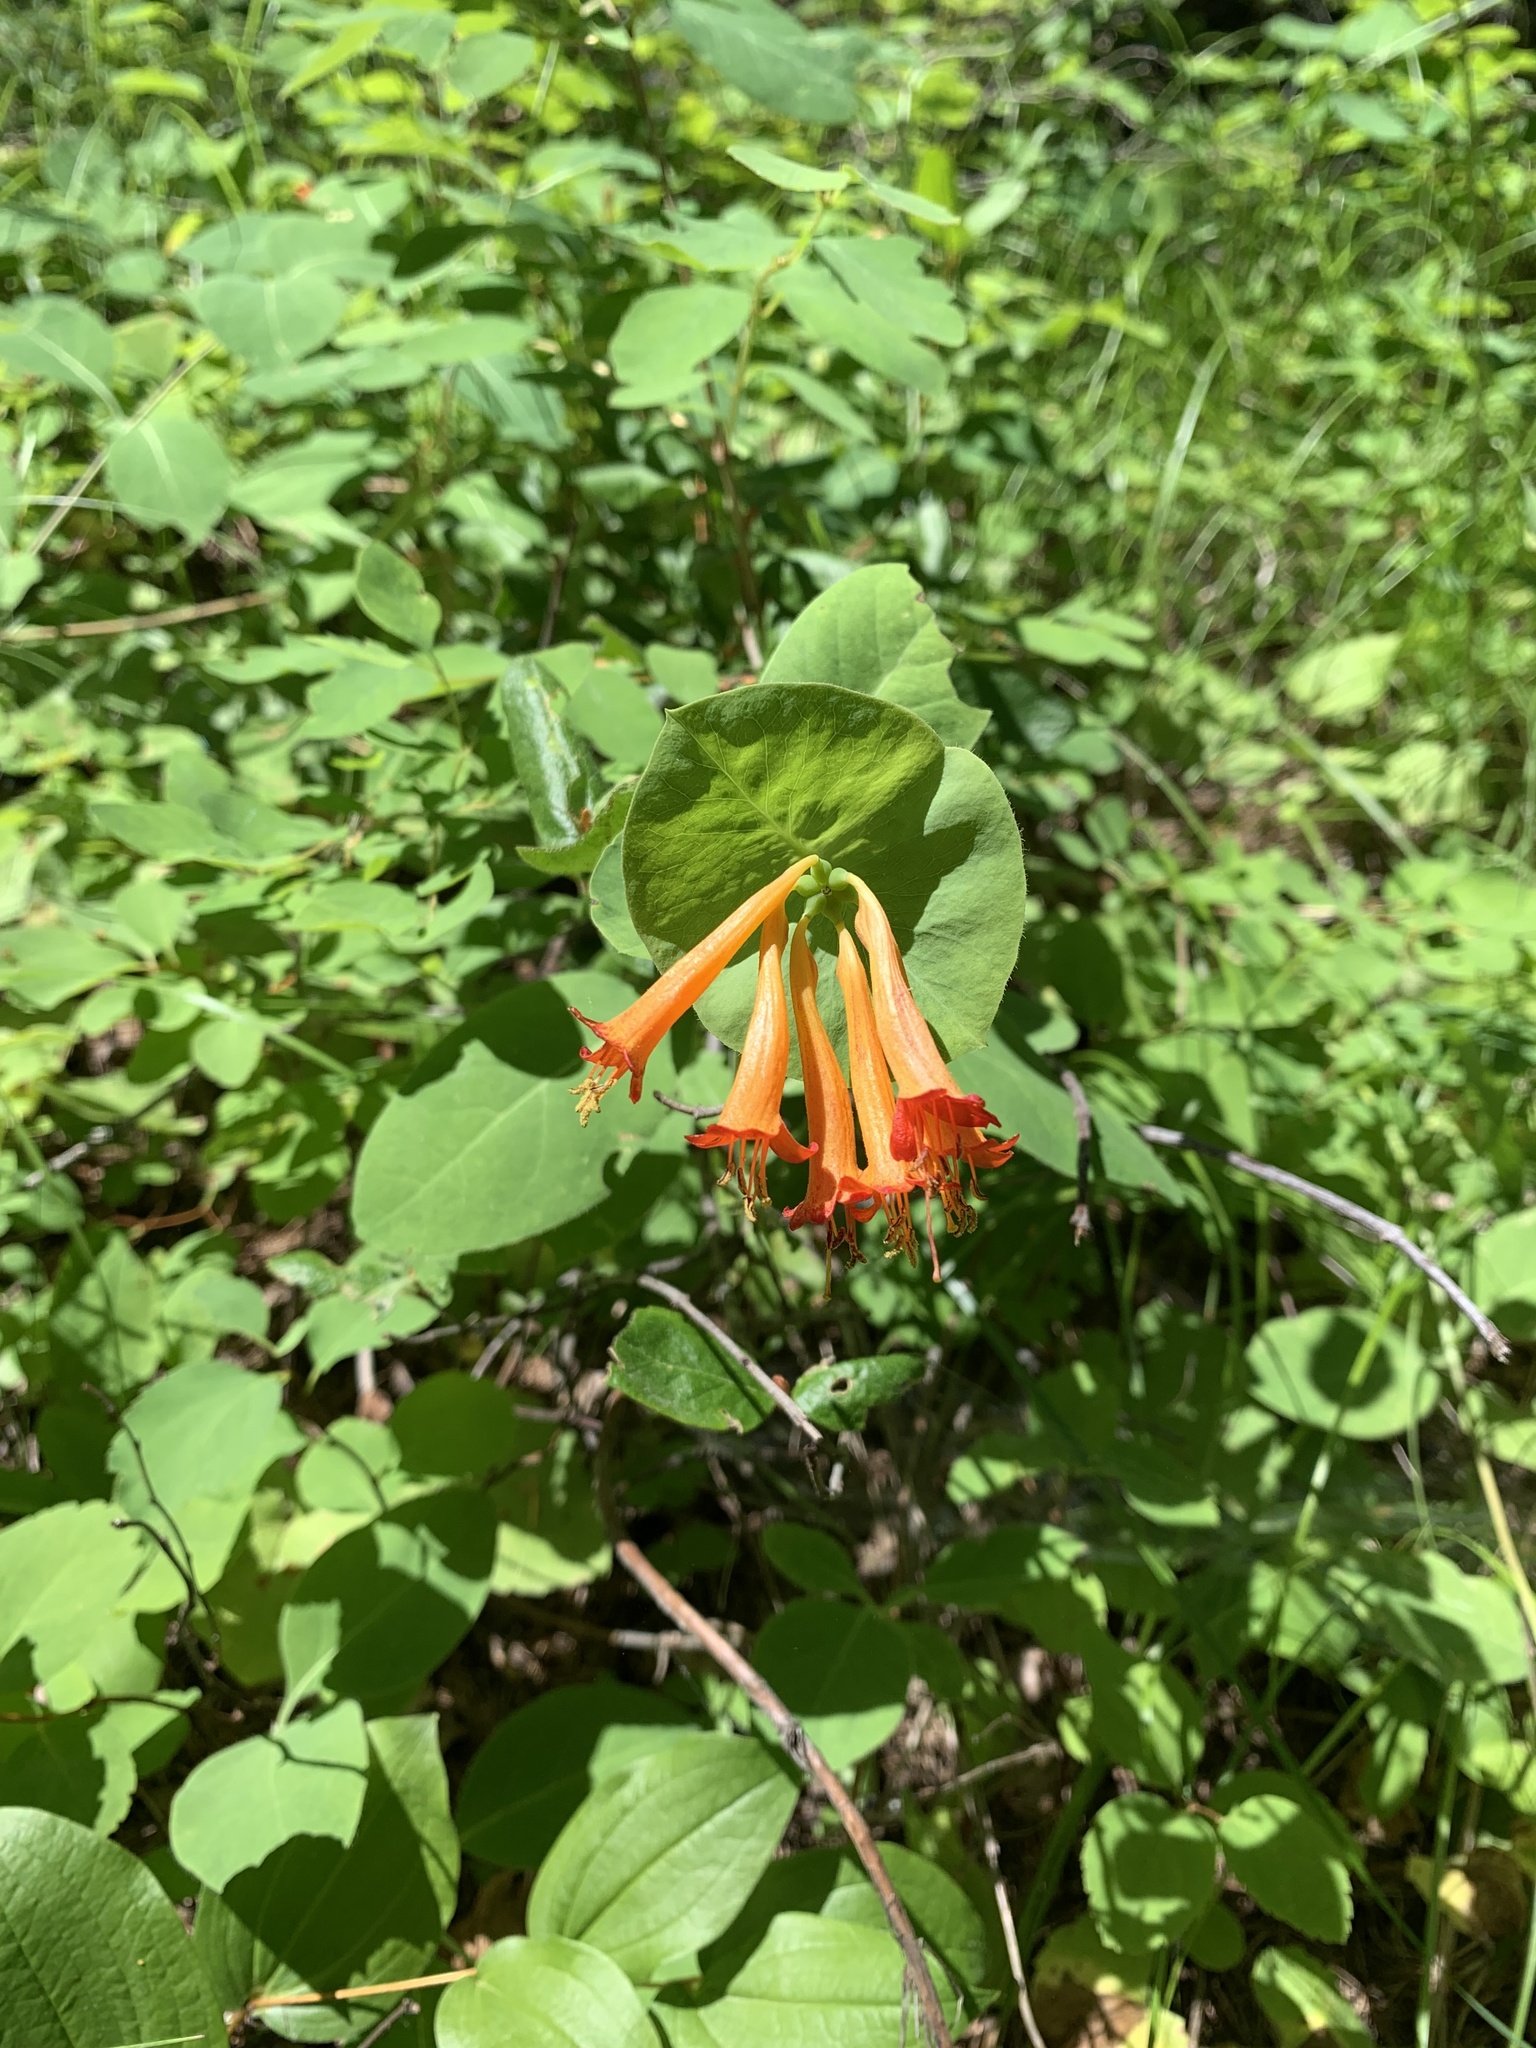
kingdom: Plantae
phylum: Tracheophyta
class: Magnoliopsida
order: Dipsacales
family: Caprifoliaceae
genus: Lonicera
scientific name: Lonicera ciliosa
